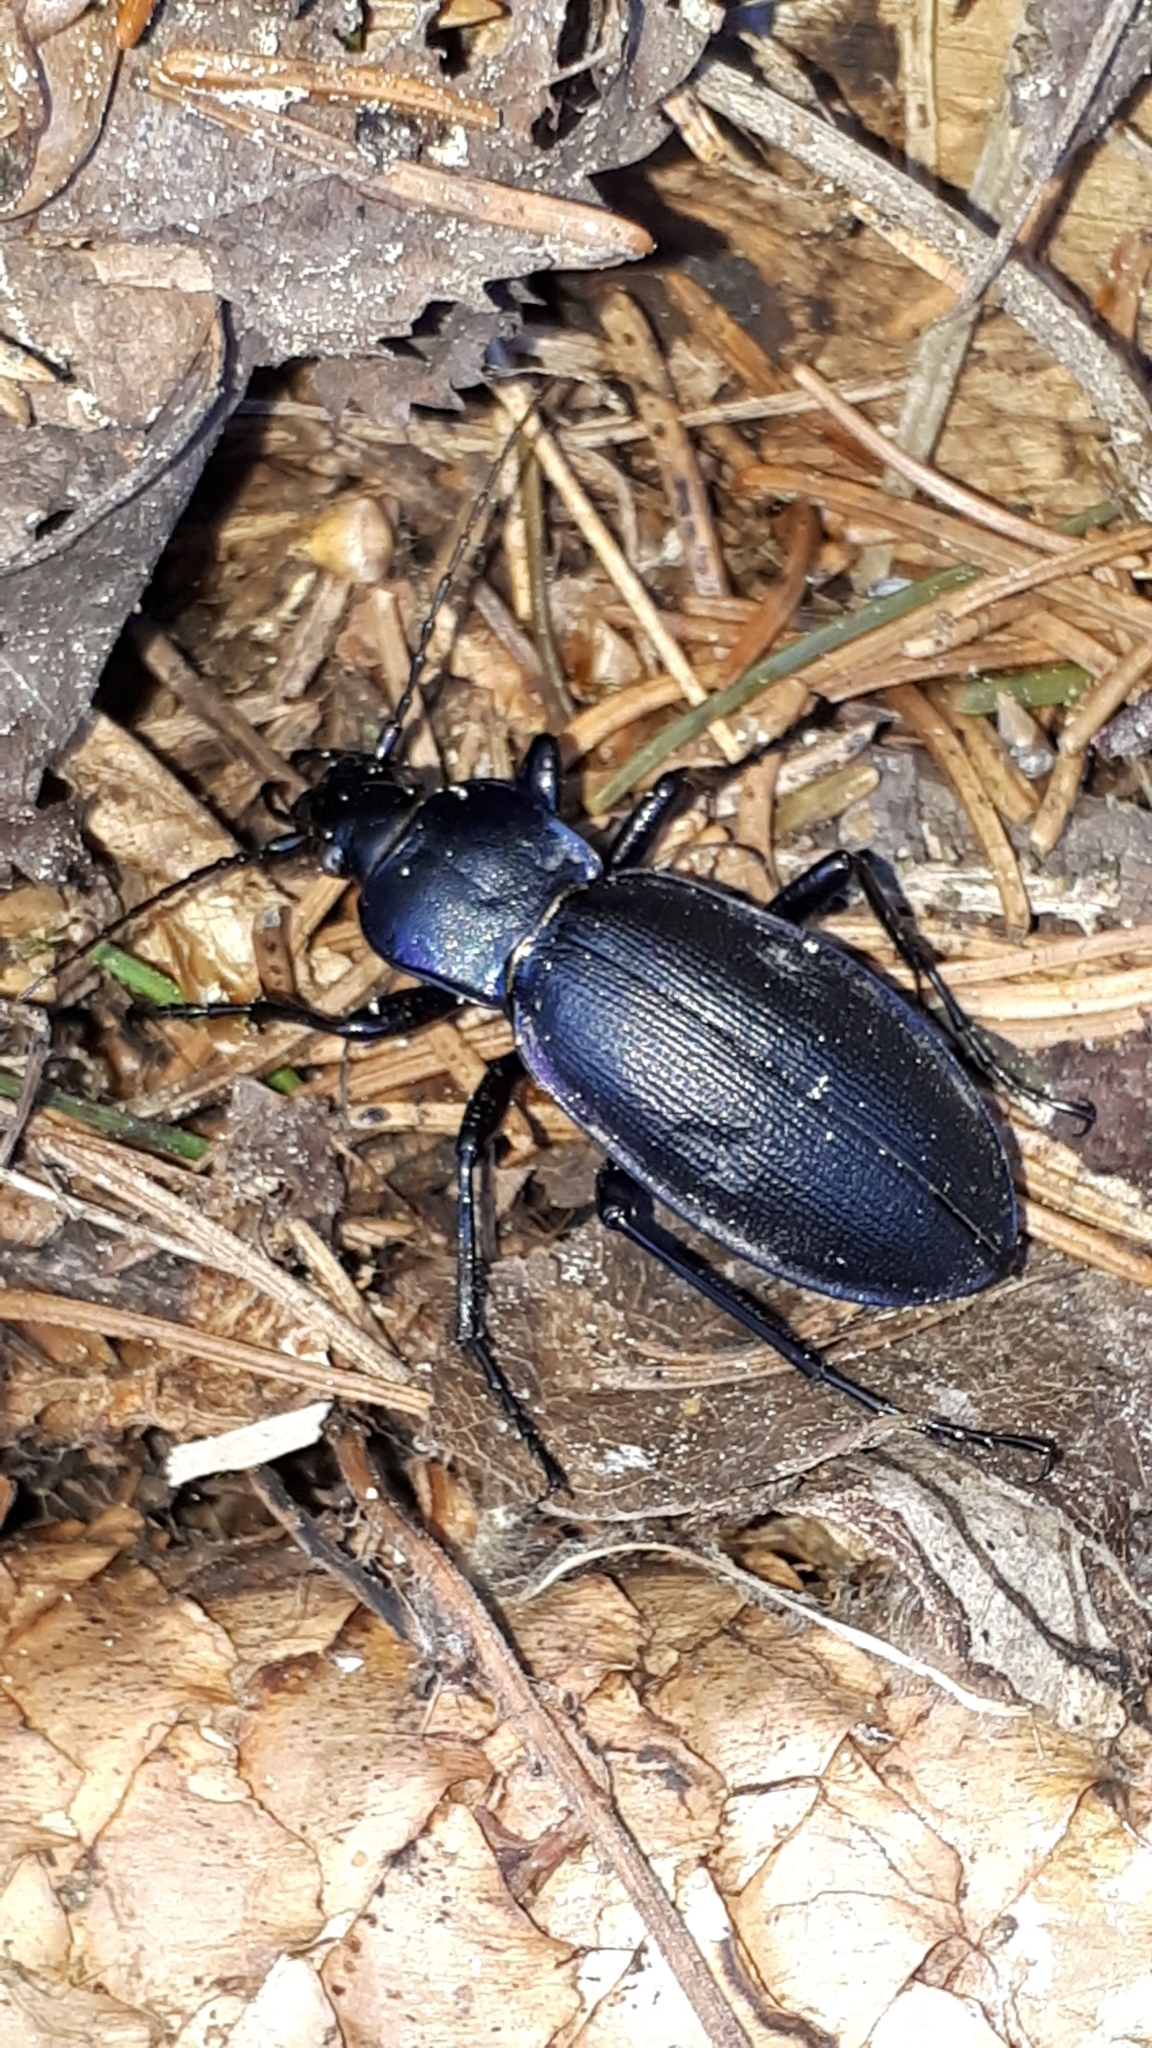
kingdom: Animalia
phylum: Arthropoda
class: Insecta
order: Coleoptera
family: Carabidae
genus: Carabus
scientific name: Carabus purpurascens
